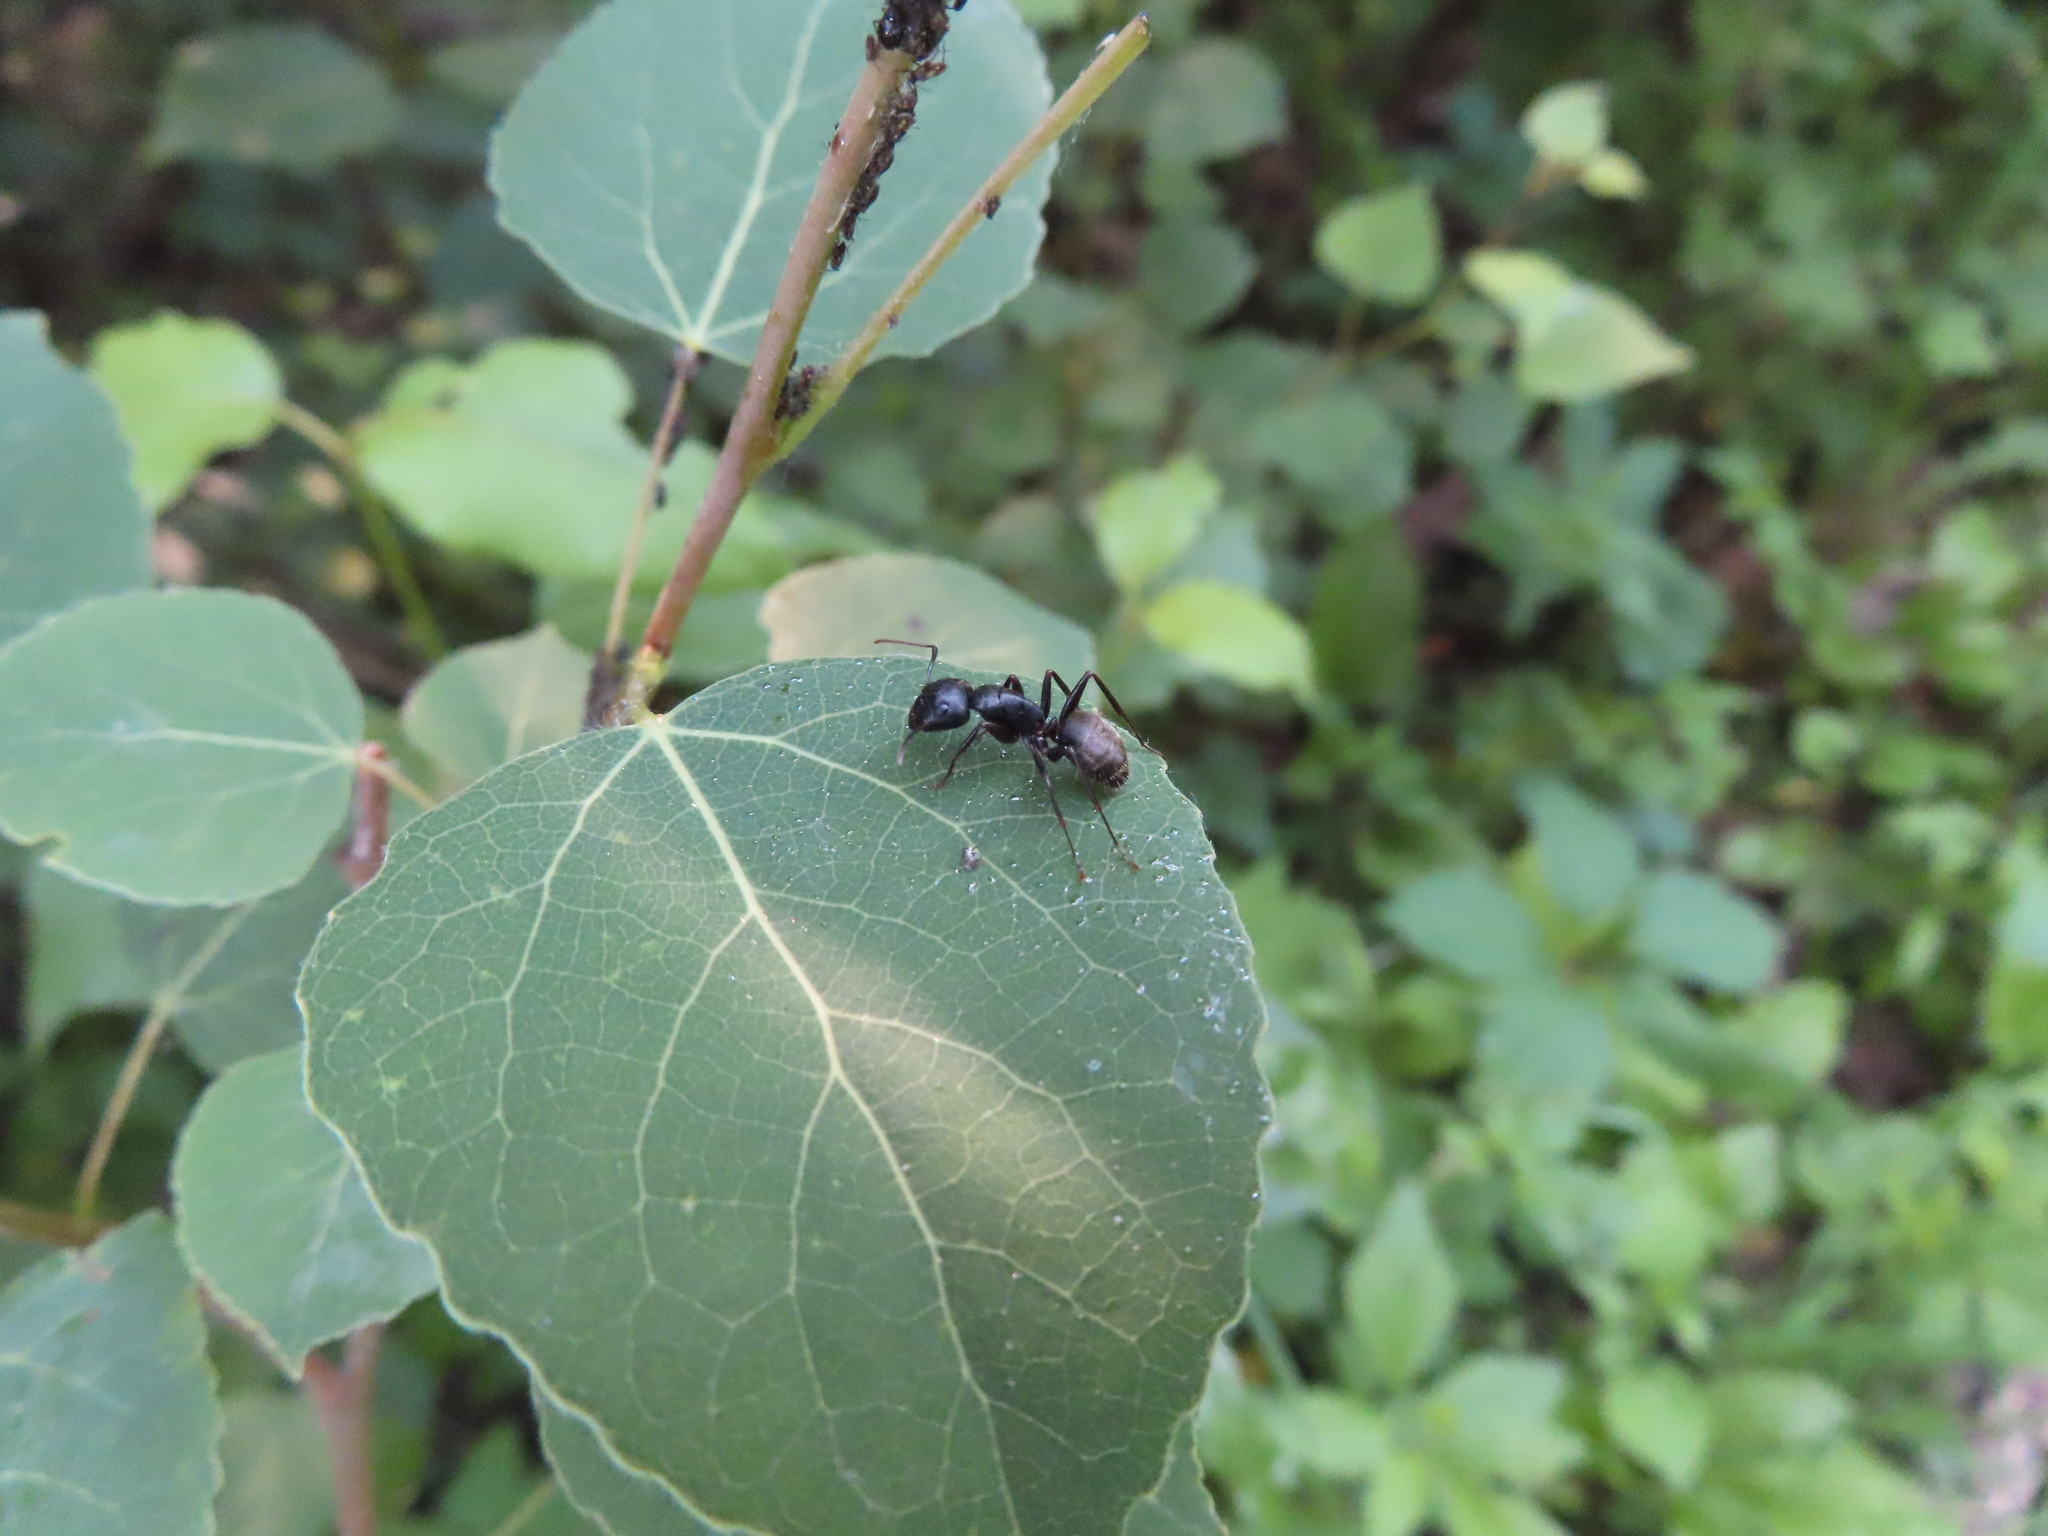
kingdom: Animalia
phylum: Arthropoda
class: Insecta
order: Hymenoptera
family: Formicidae
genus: Camponotus
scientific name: Camponotus pennsylvanicus
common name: Black carpenter ant
